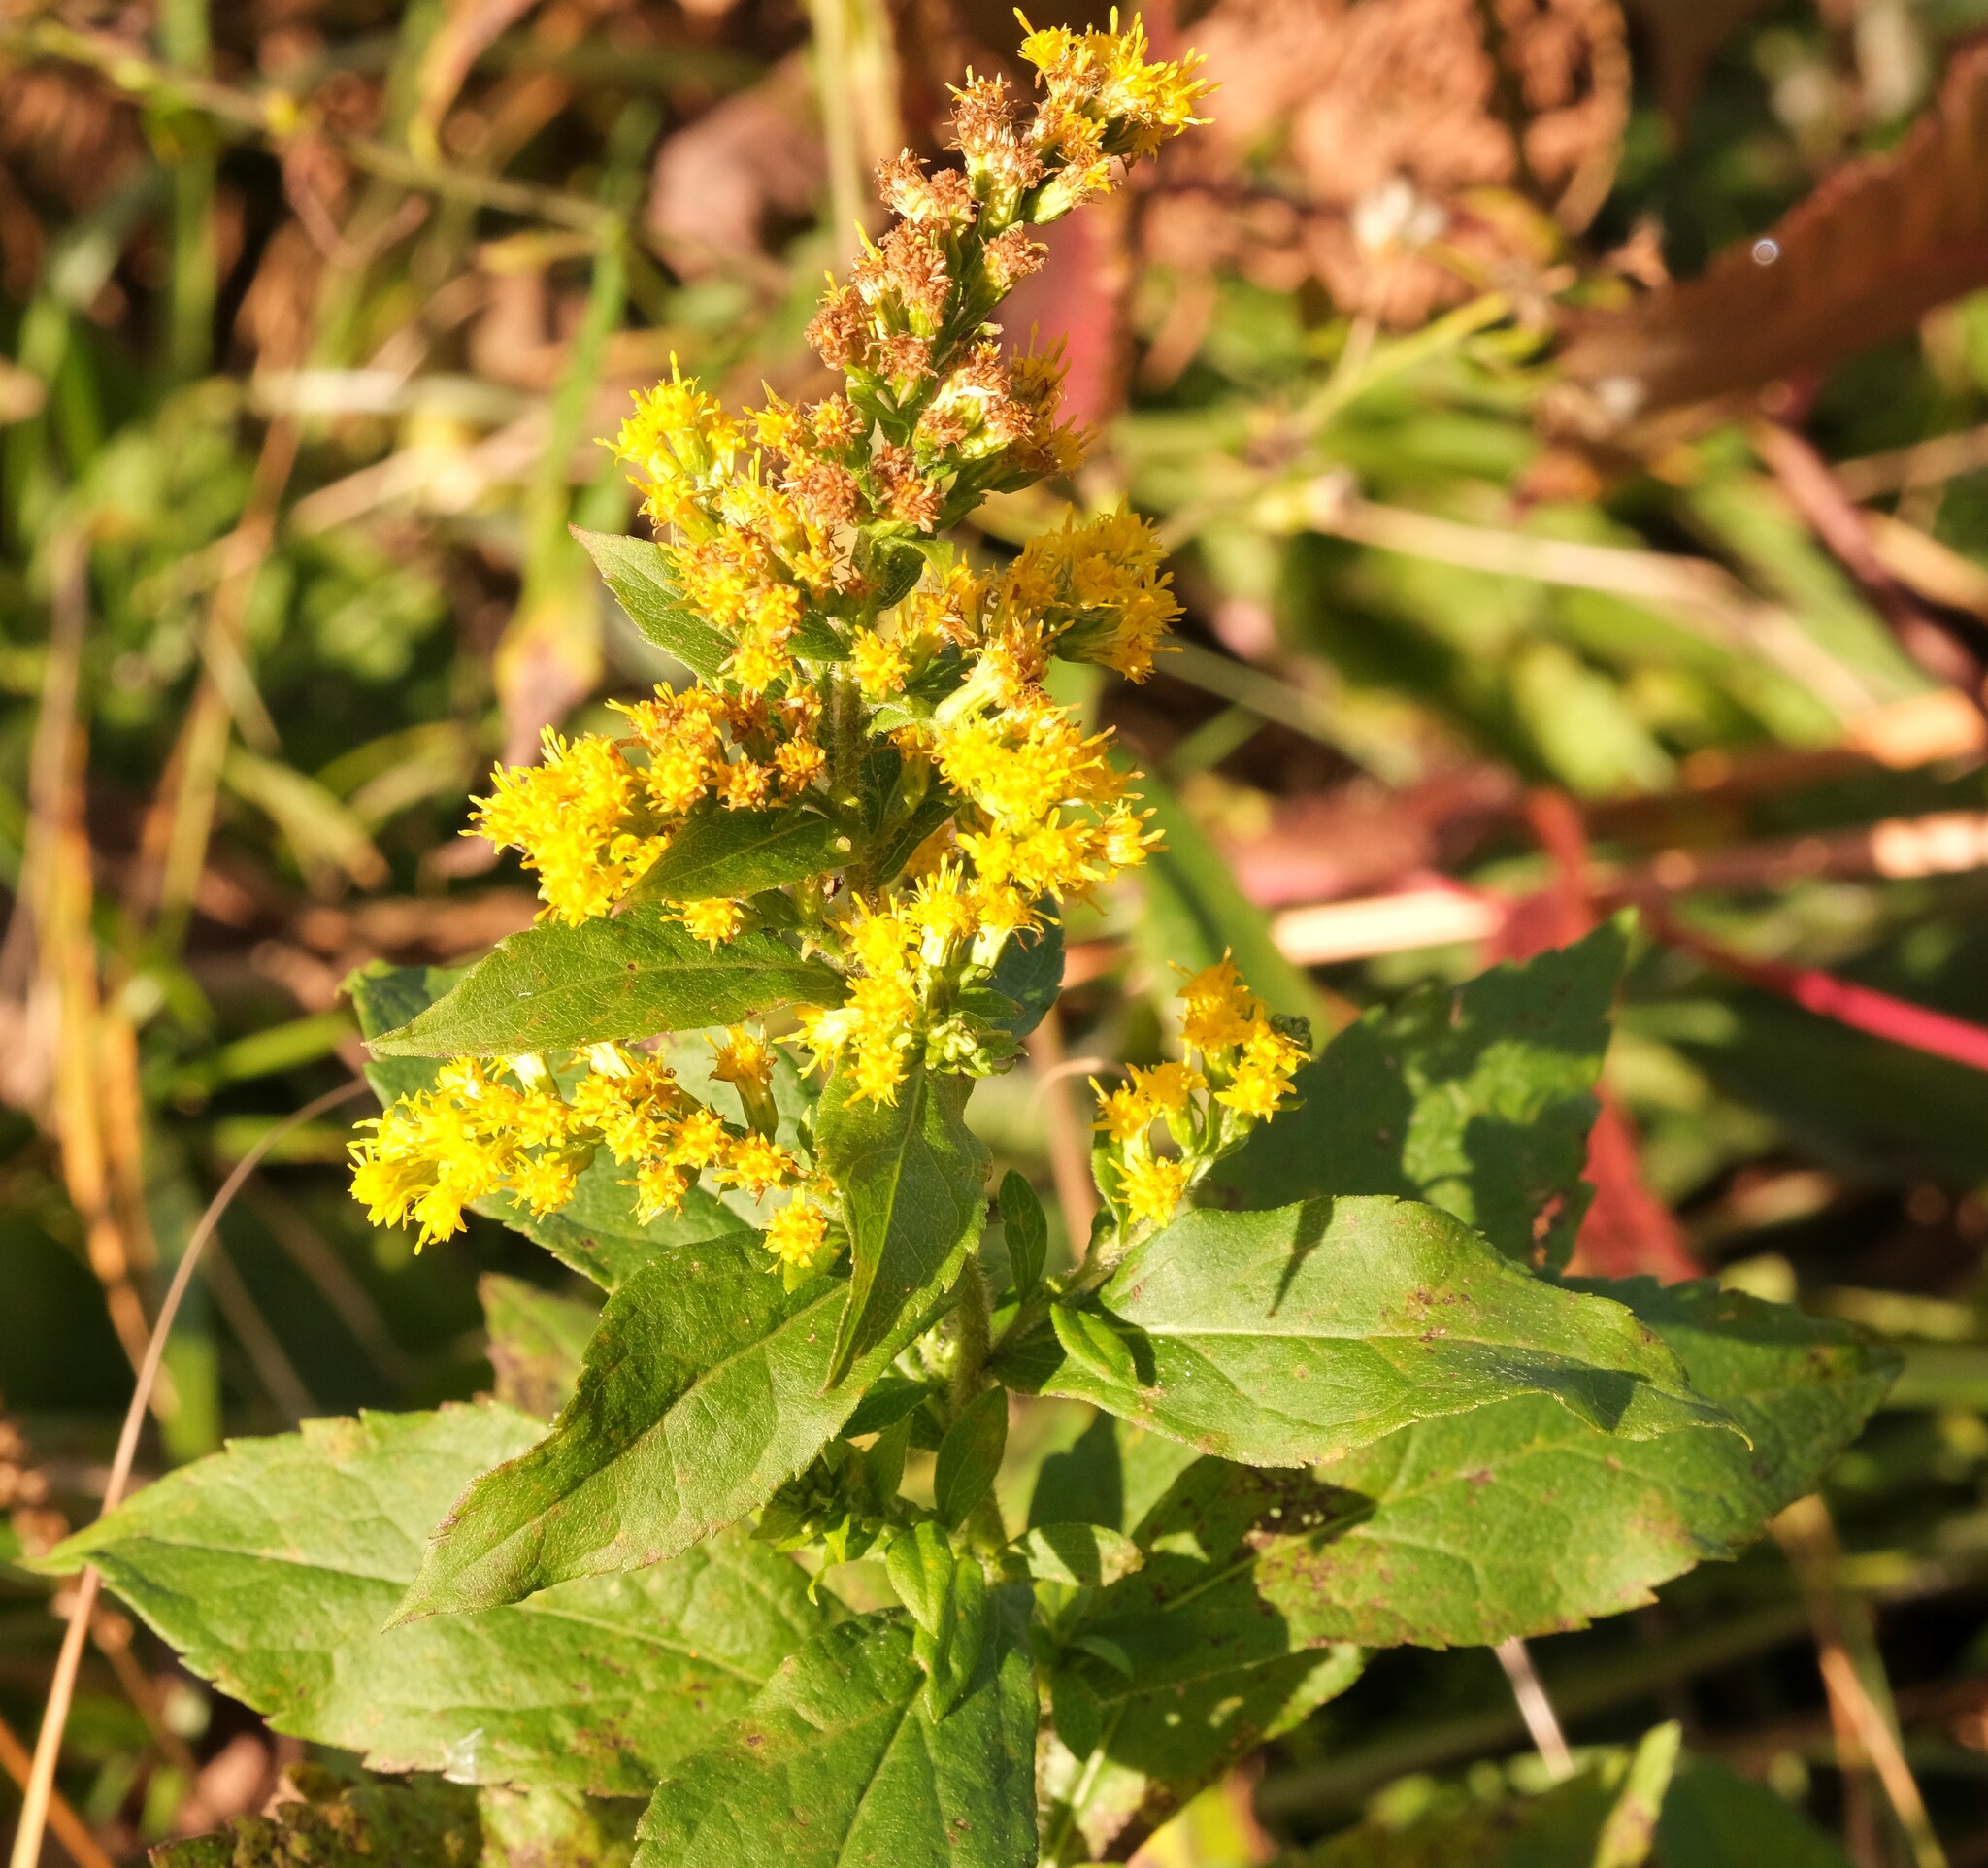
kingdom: Plantae
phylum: Tracheophyta
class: Magnoliopsida
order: Asterales
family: Asteraceae
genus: Solidago
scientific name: Solidago rugosa
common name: Rough-stemmed goldenrod
